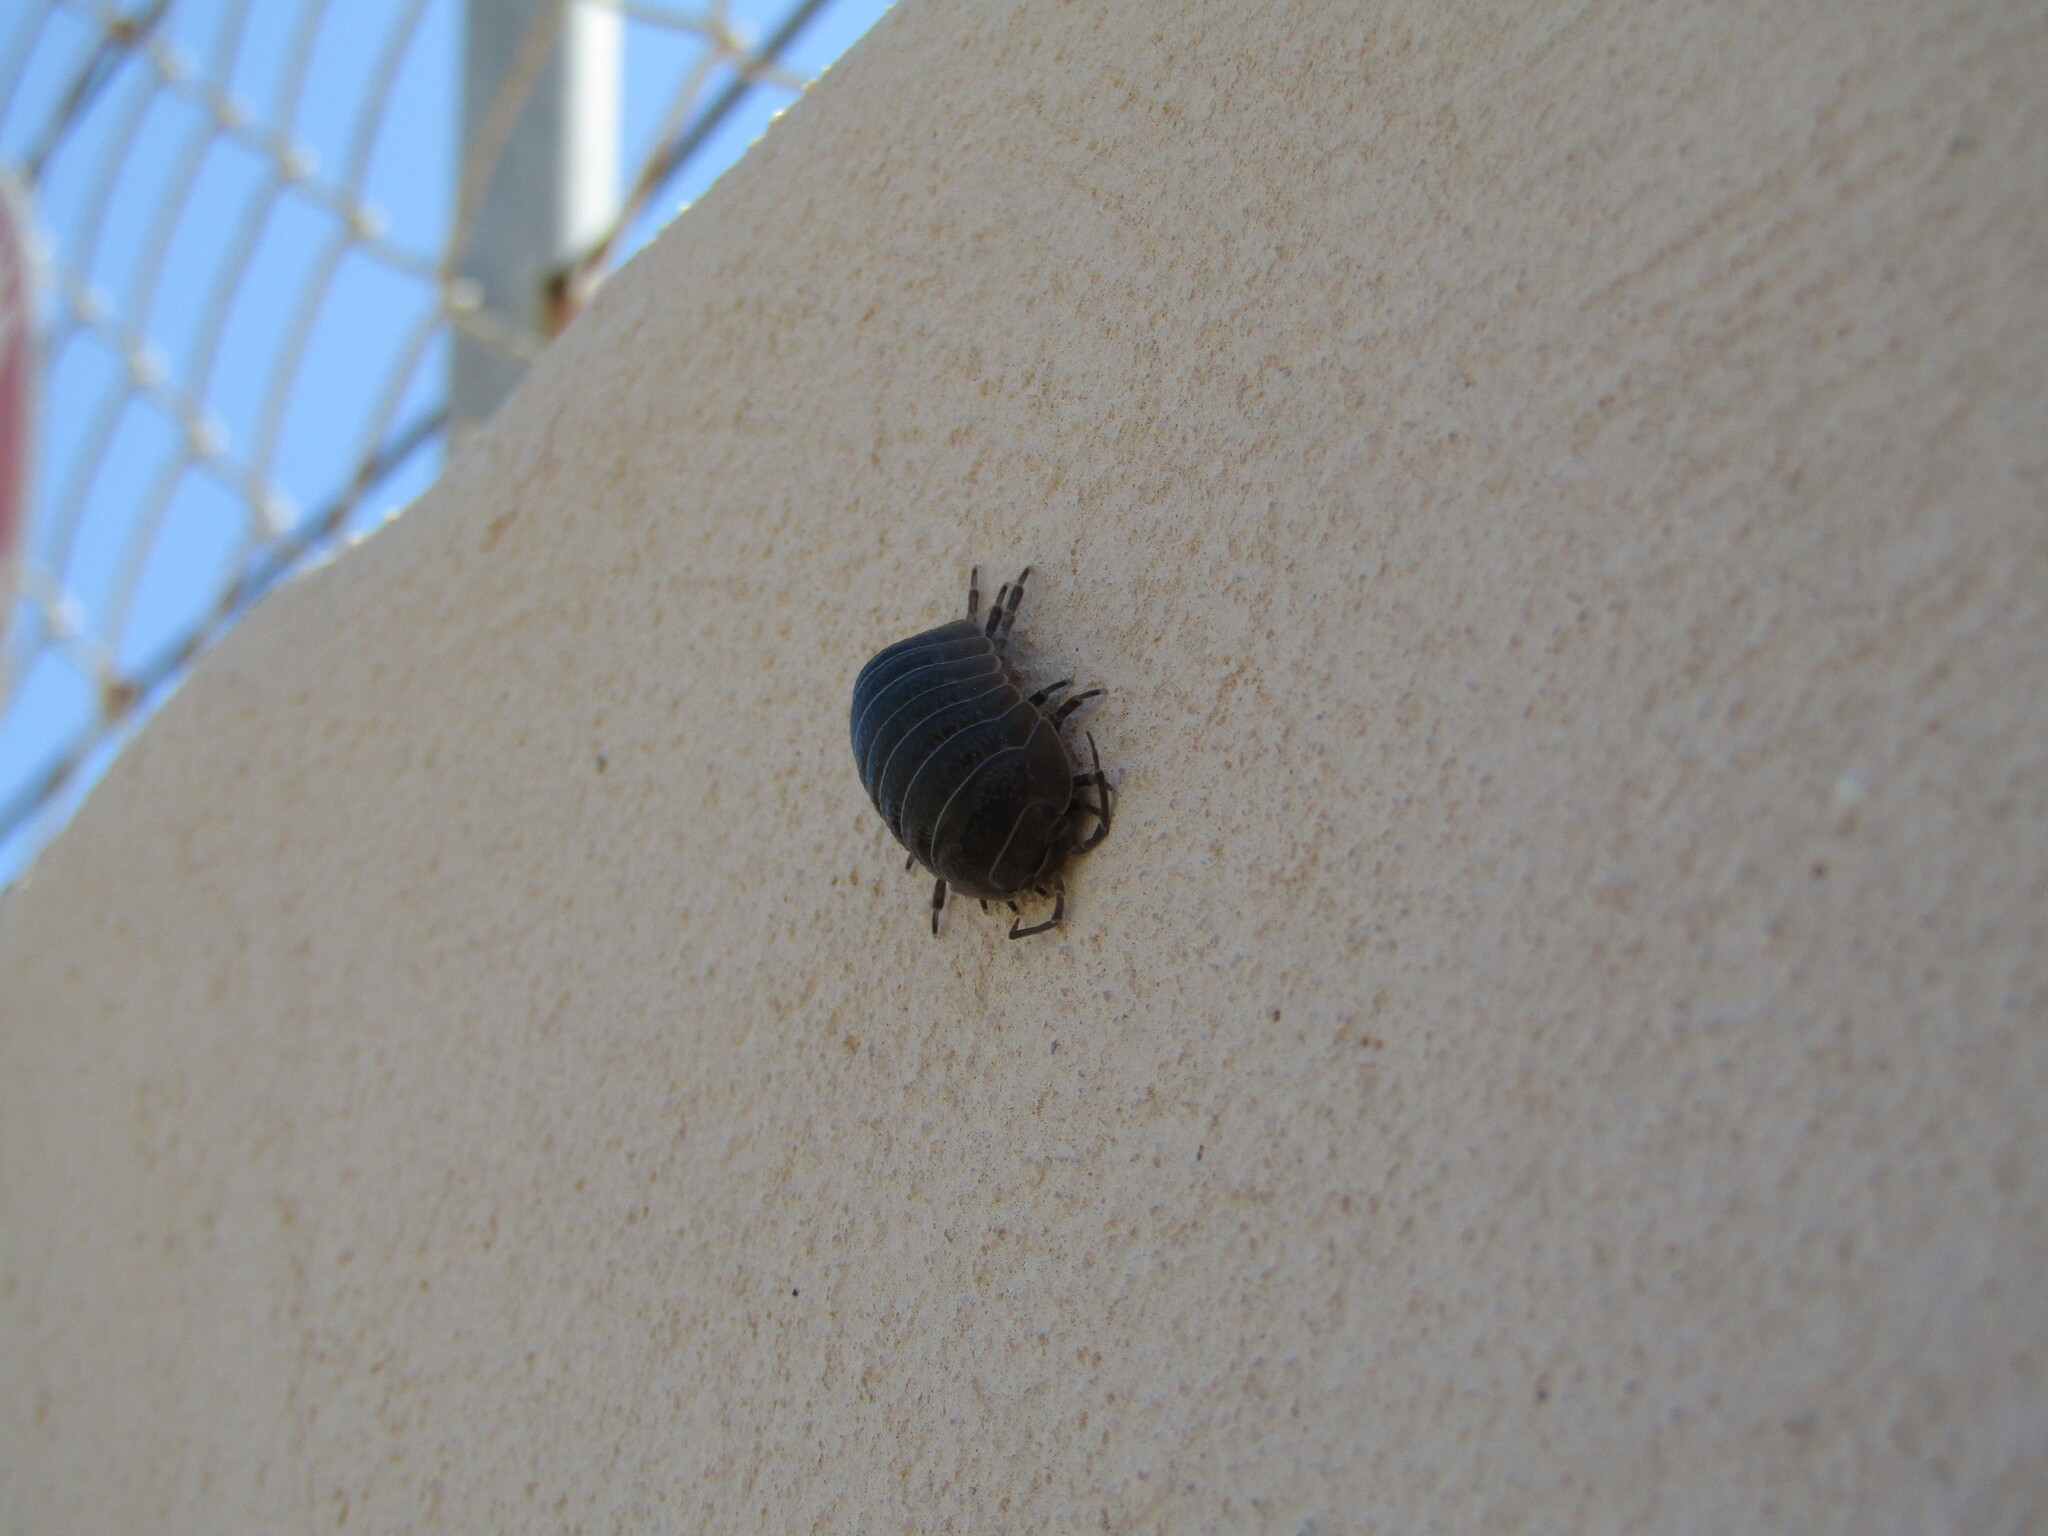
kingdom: Animalia
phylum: Arthropoda
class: Malacostraca
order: Isopoda
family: Armadillidiidae
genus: Armadillidium
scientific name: Armadillidium granulatum
